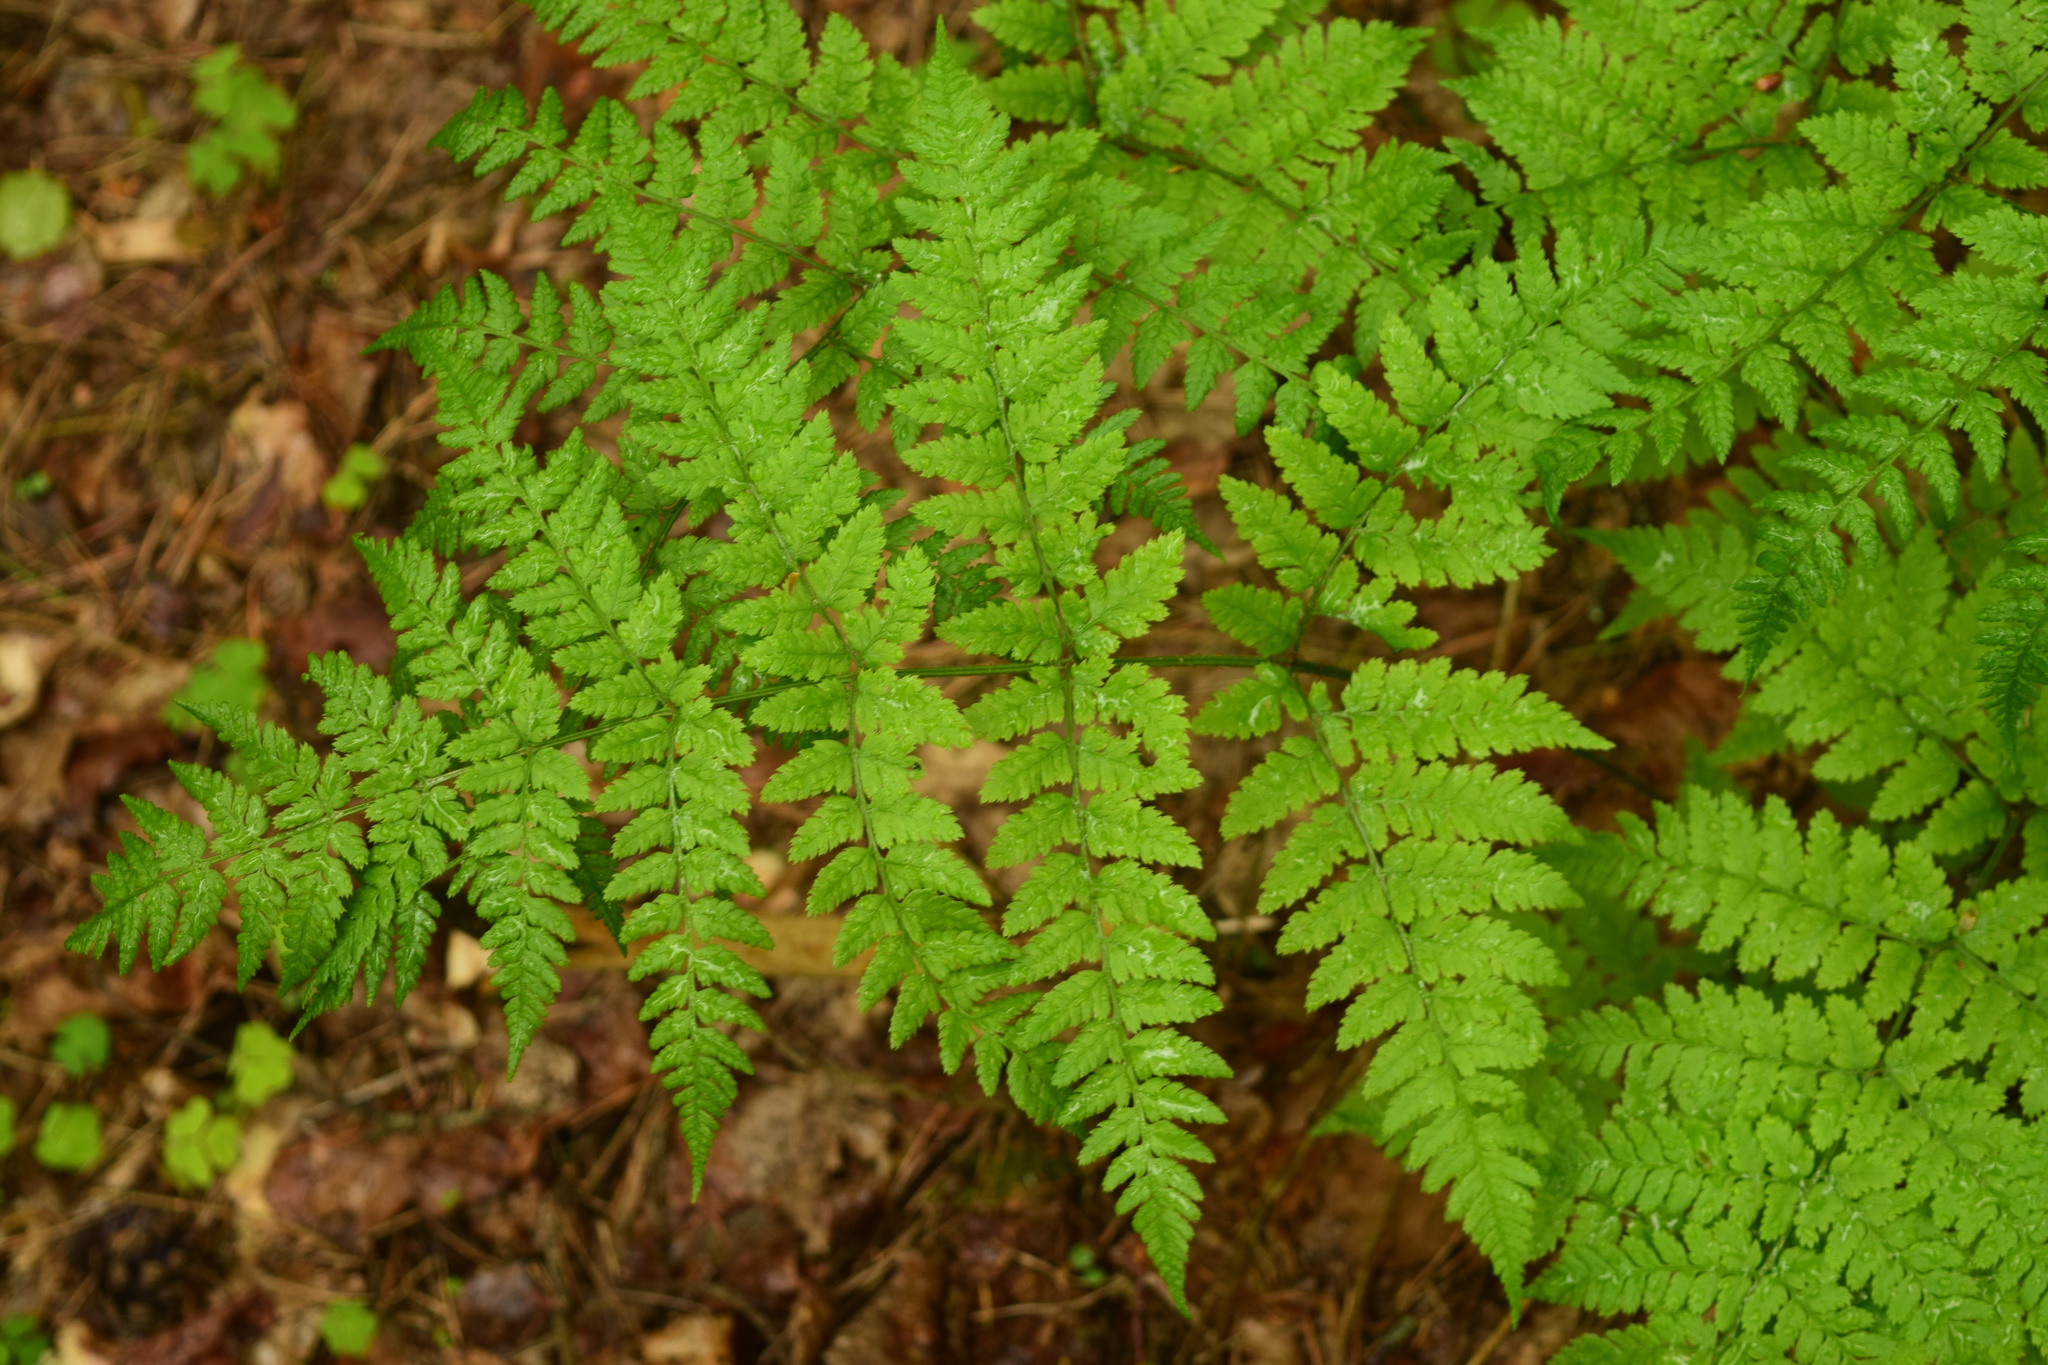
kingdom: Plantae
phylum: Tracheophyta
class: Polypodiopsida
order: Polypodiales
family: Dryopteridaceae
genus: Dryopteris
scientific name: Dryopteris carthusiana
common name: Narrow buckler-fern
